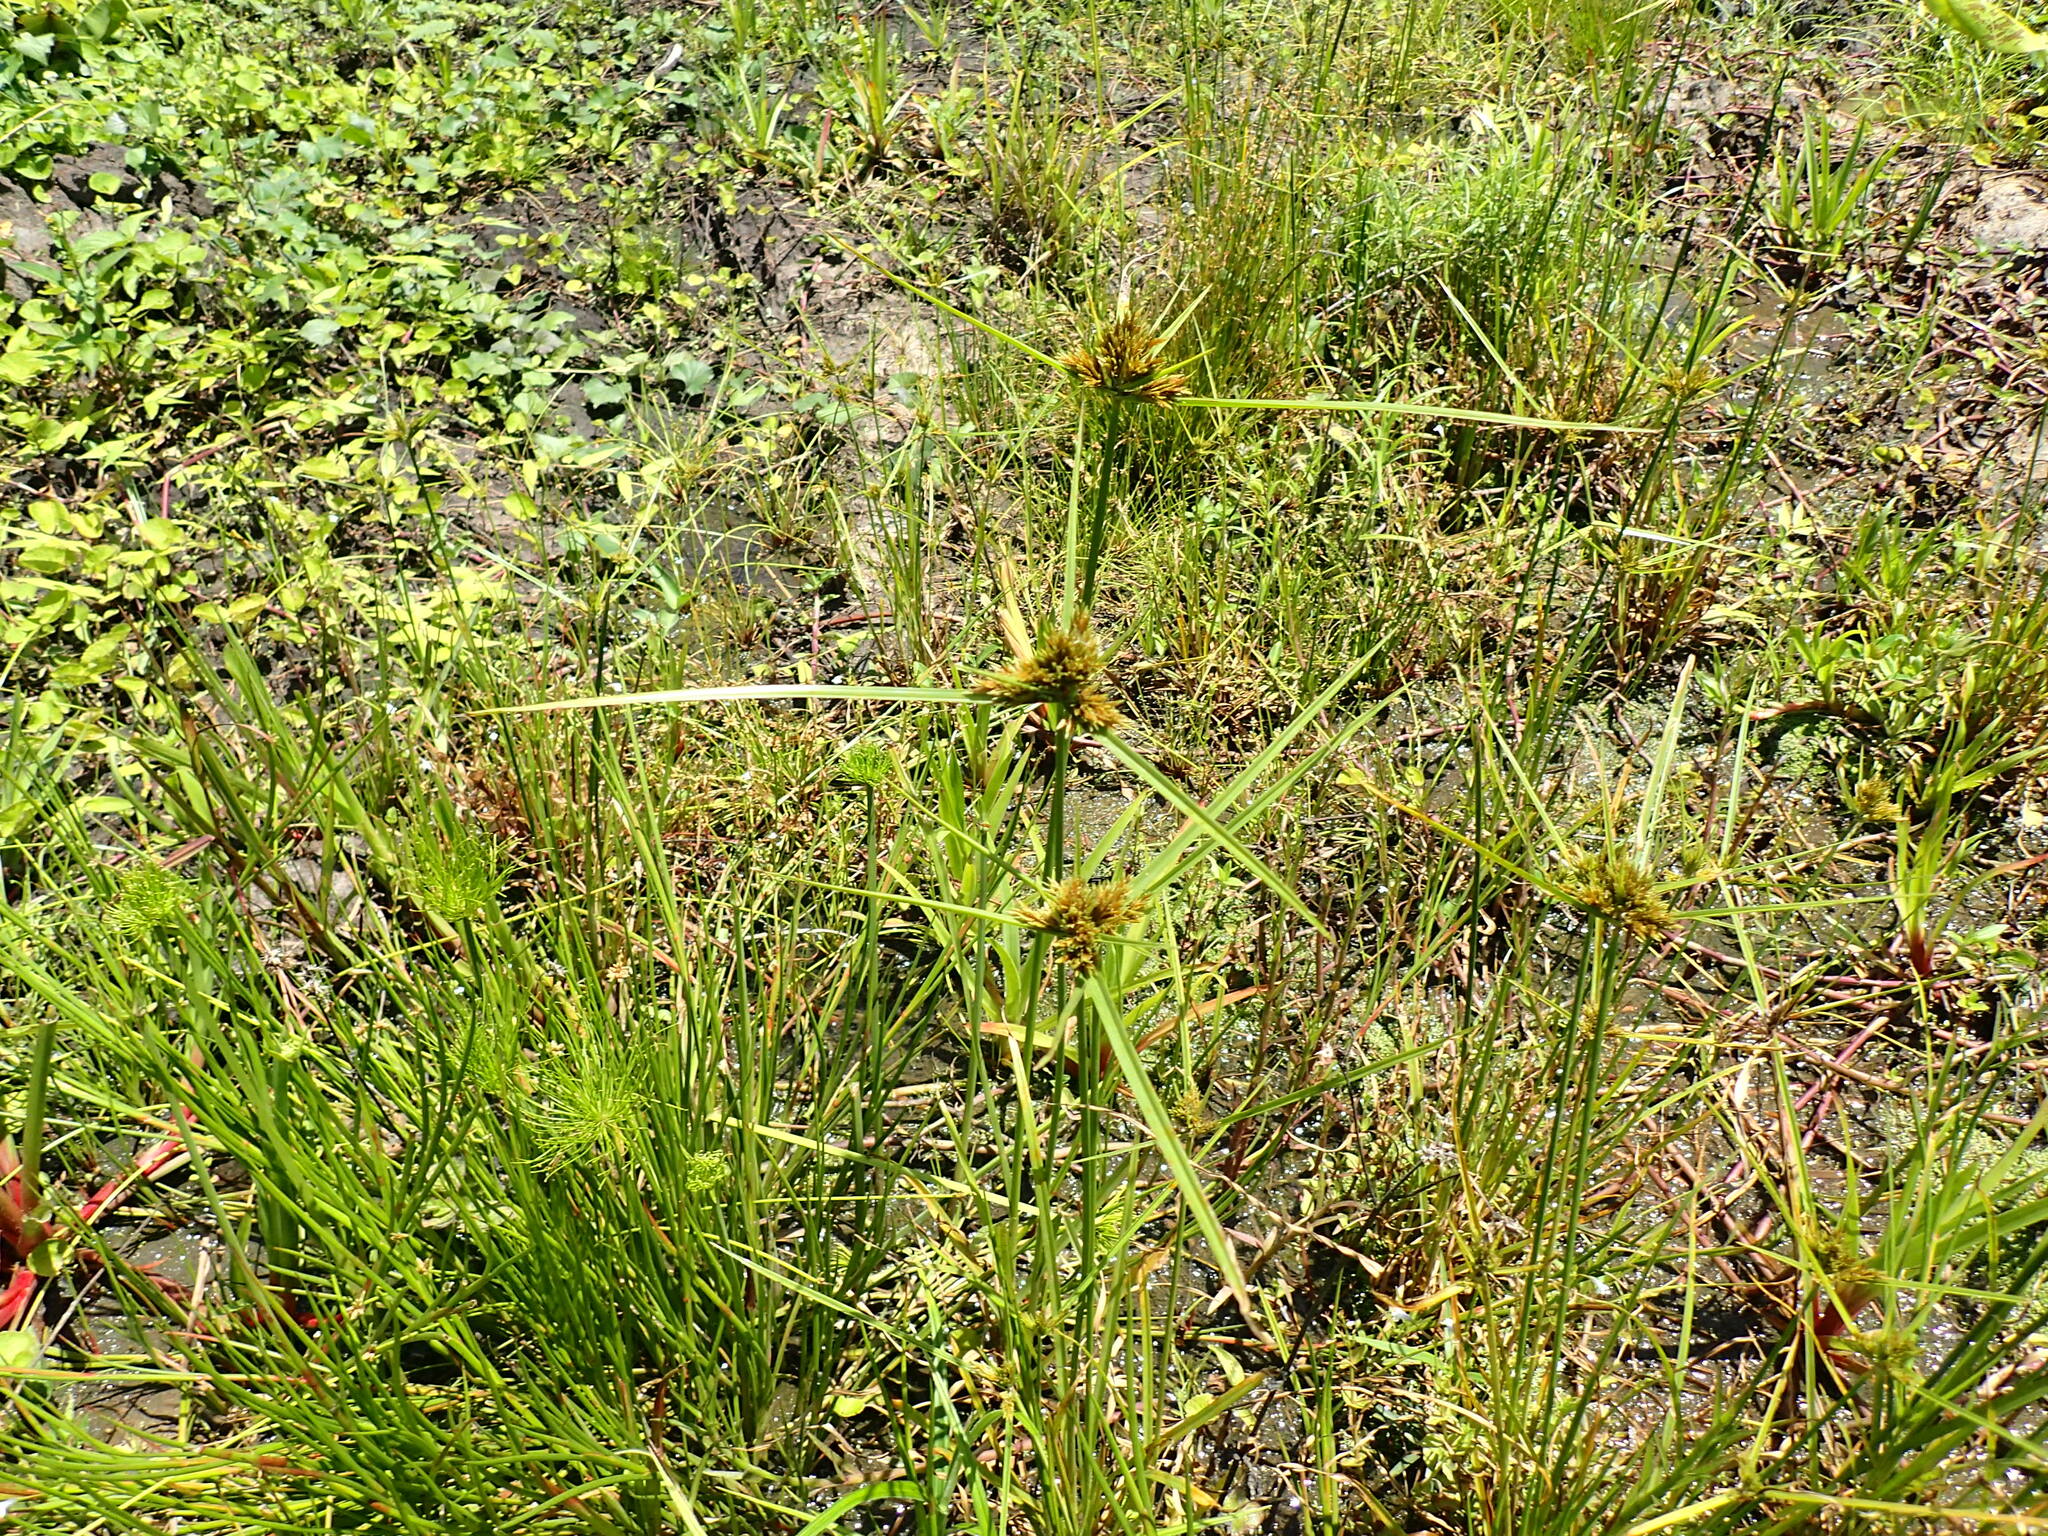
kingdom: Plantae
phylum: Tracheophyta
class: Liliopsida
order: Poales
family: Cyperaceae
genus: Cyperus
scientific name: Cyperus polystachyos
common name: Bunchy flat sedge
